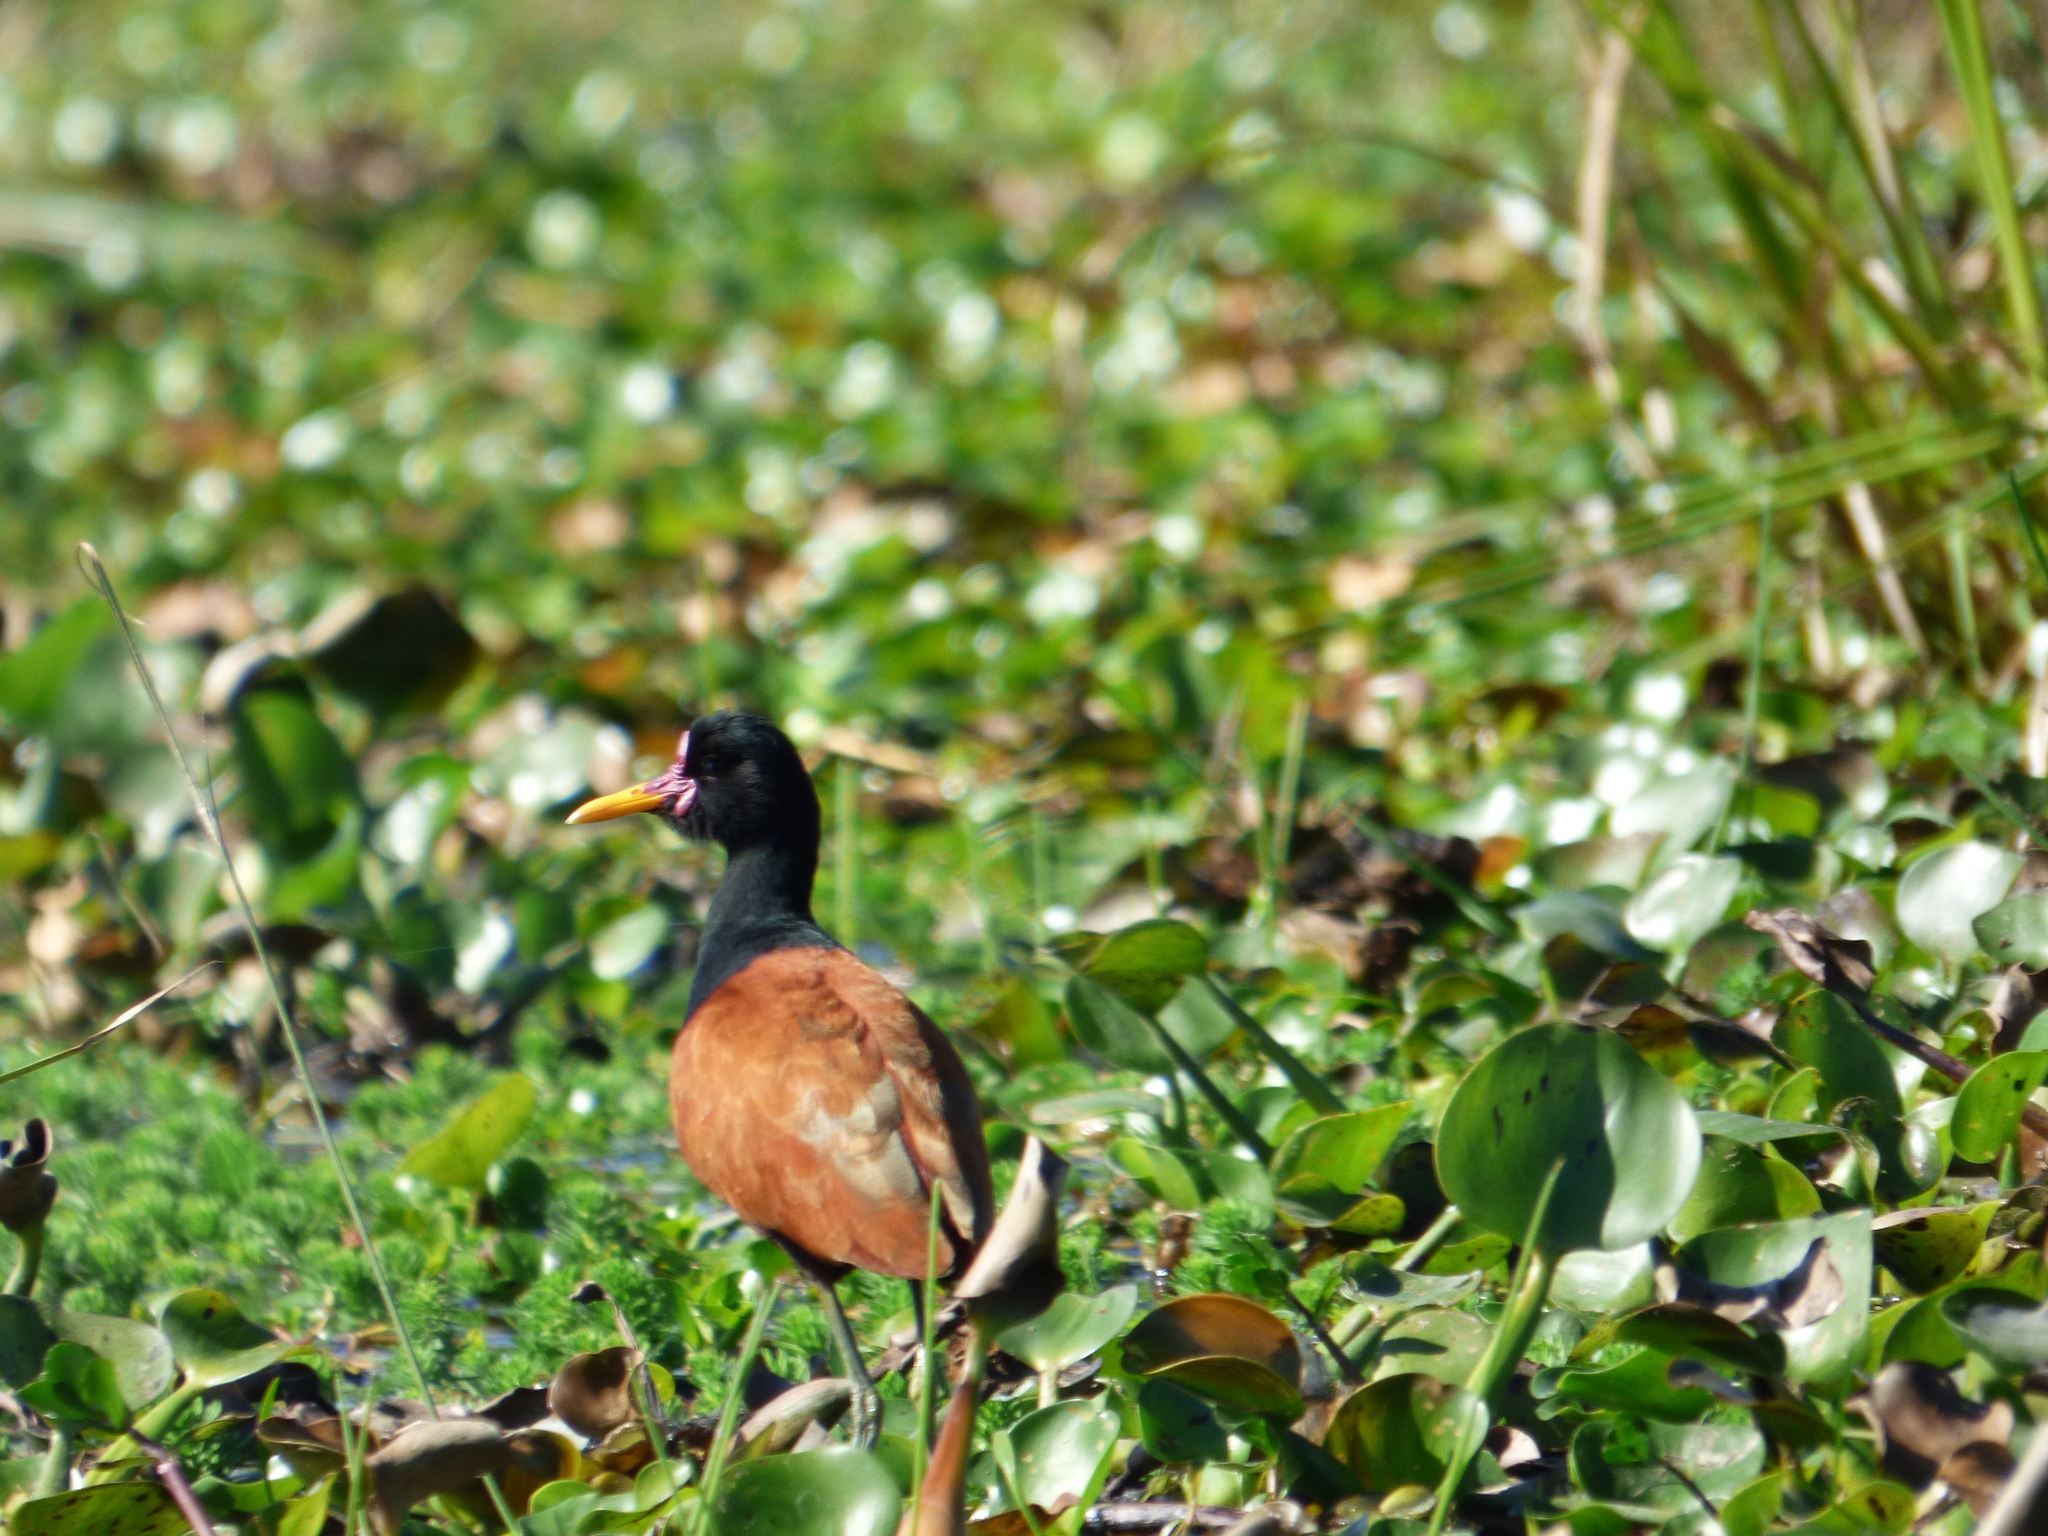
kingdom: Animalia
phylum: Chordata
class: Aves
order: Charadriiformes
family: Jacanidae
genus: Jacana
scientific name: Jacana jacana
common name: Wattled jacana
